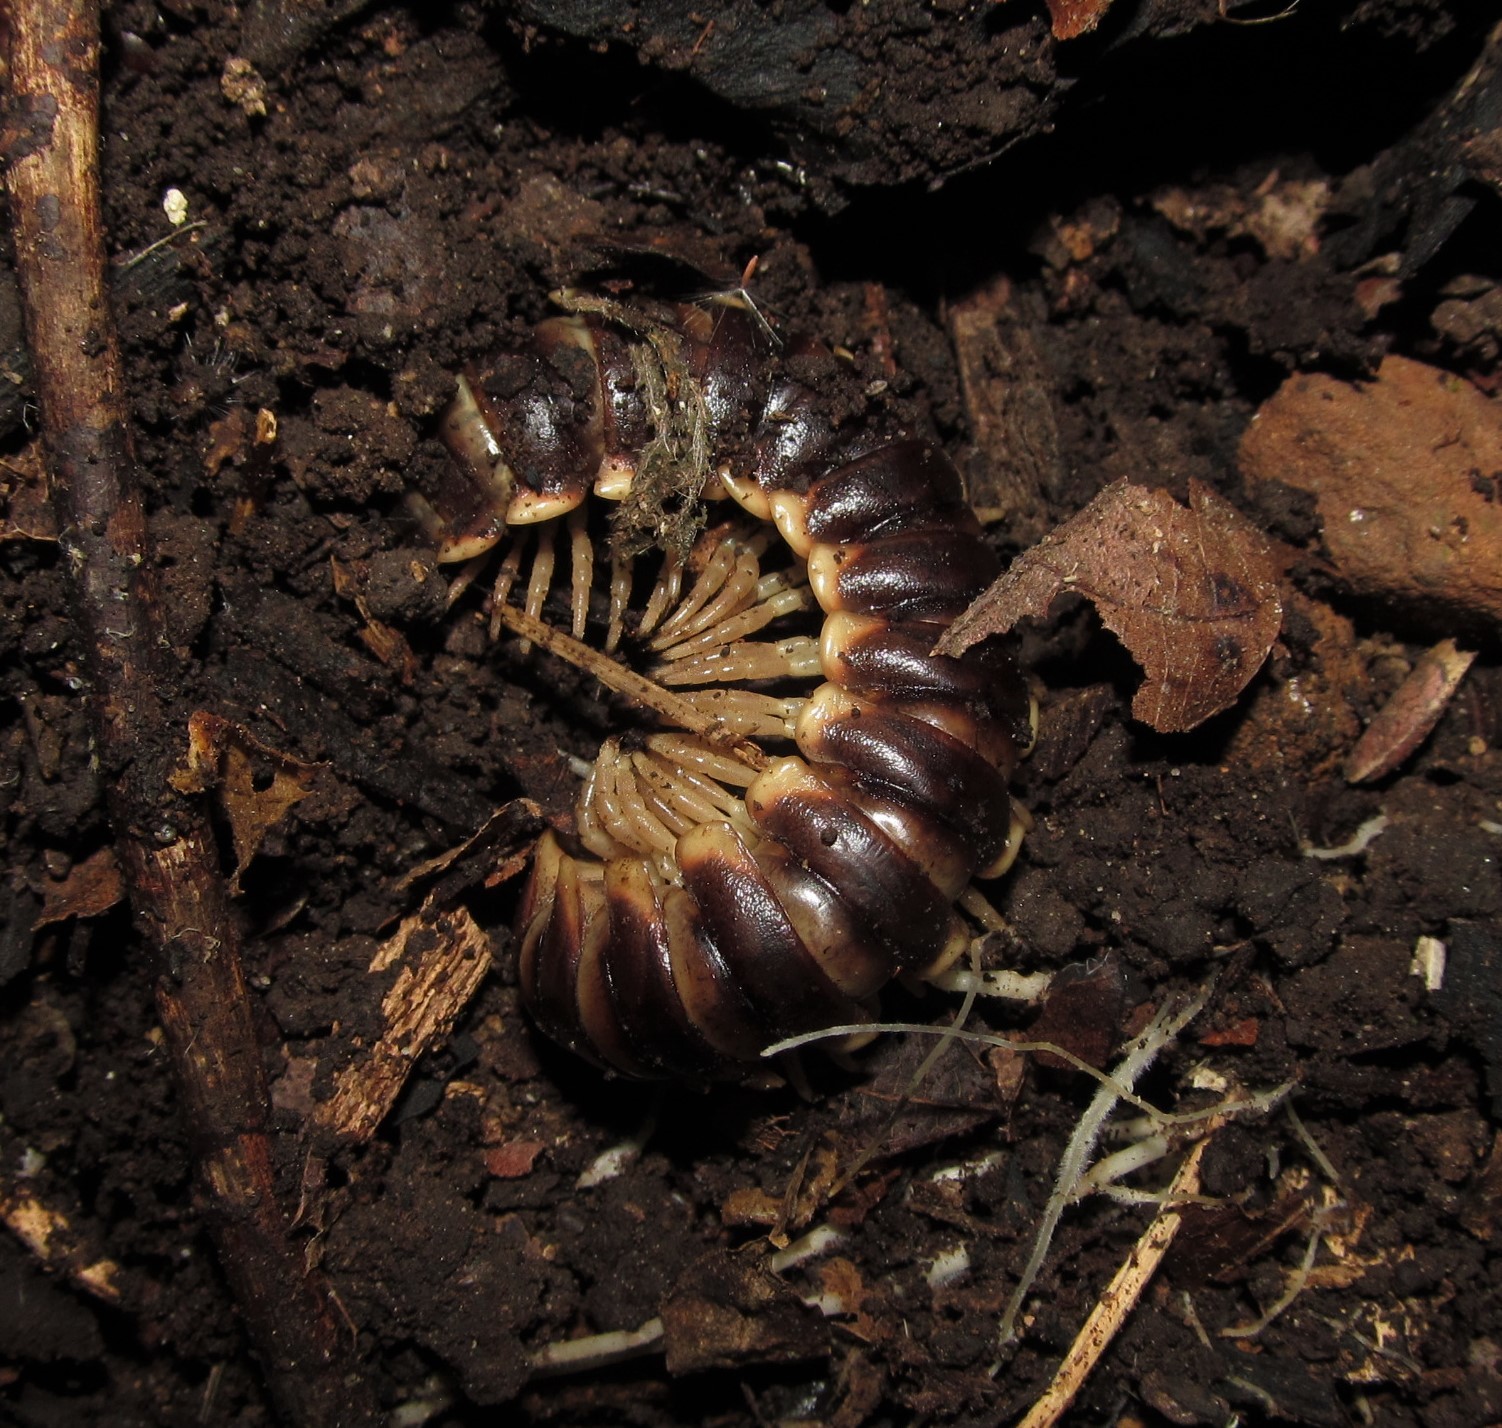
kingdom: Animalia
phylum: Arthropoda
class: Diplopoda
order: Polydesmida
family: Xystodesmidae
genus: Pachydesmus
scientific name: Pachydesmus incursus
